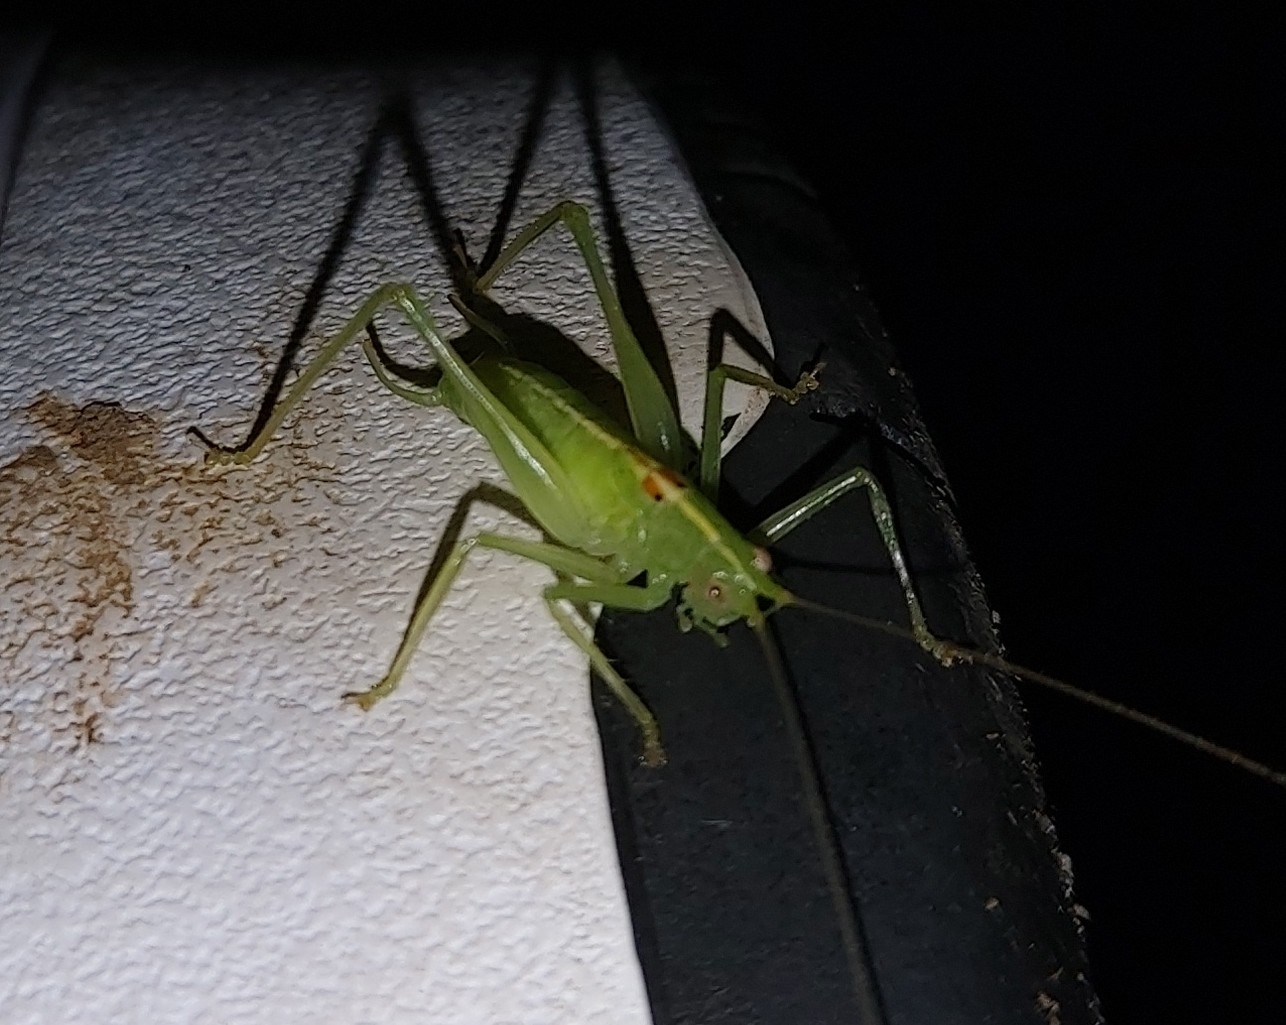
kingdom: Animalia
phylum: Arthropoda
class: Insecta
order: Orthoptera
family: Tettigoniidae
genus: Meconema
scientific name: Meconema meridionale
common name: Southern oak bush-cricket
